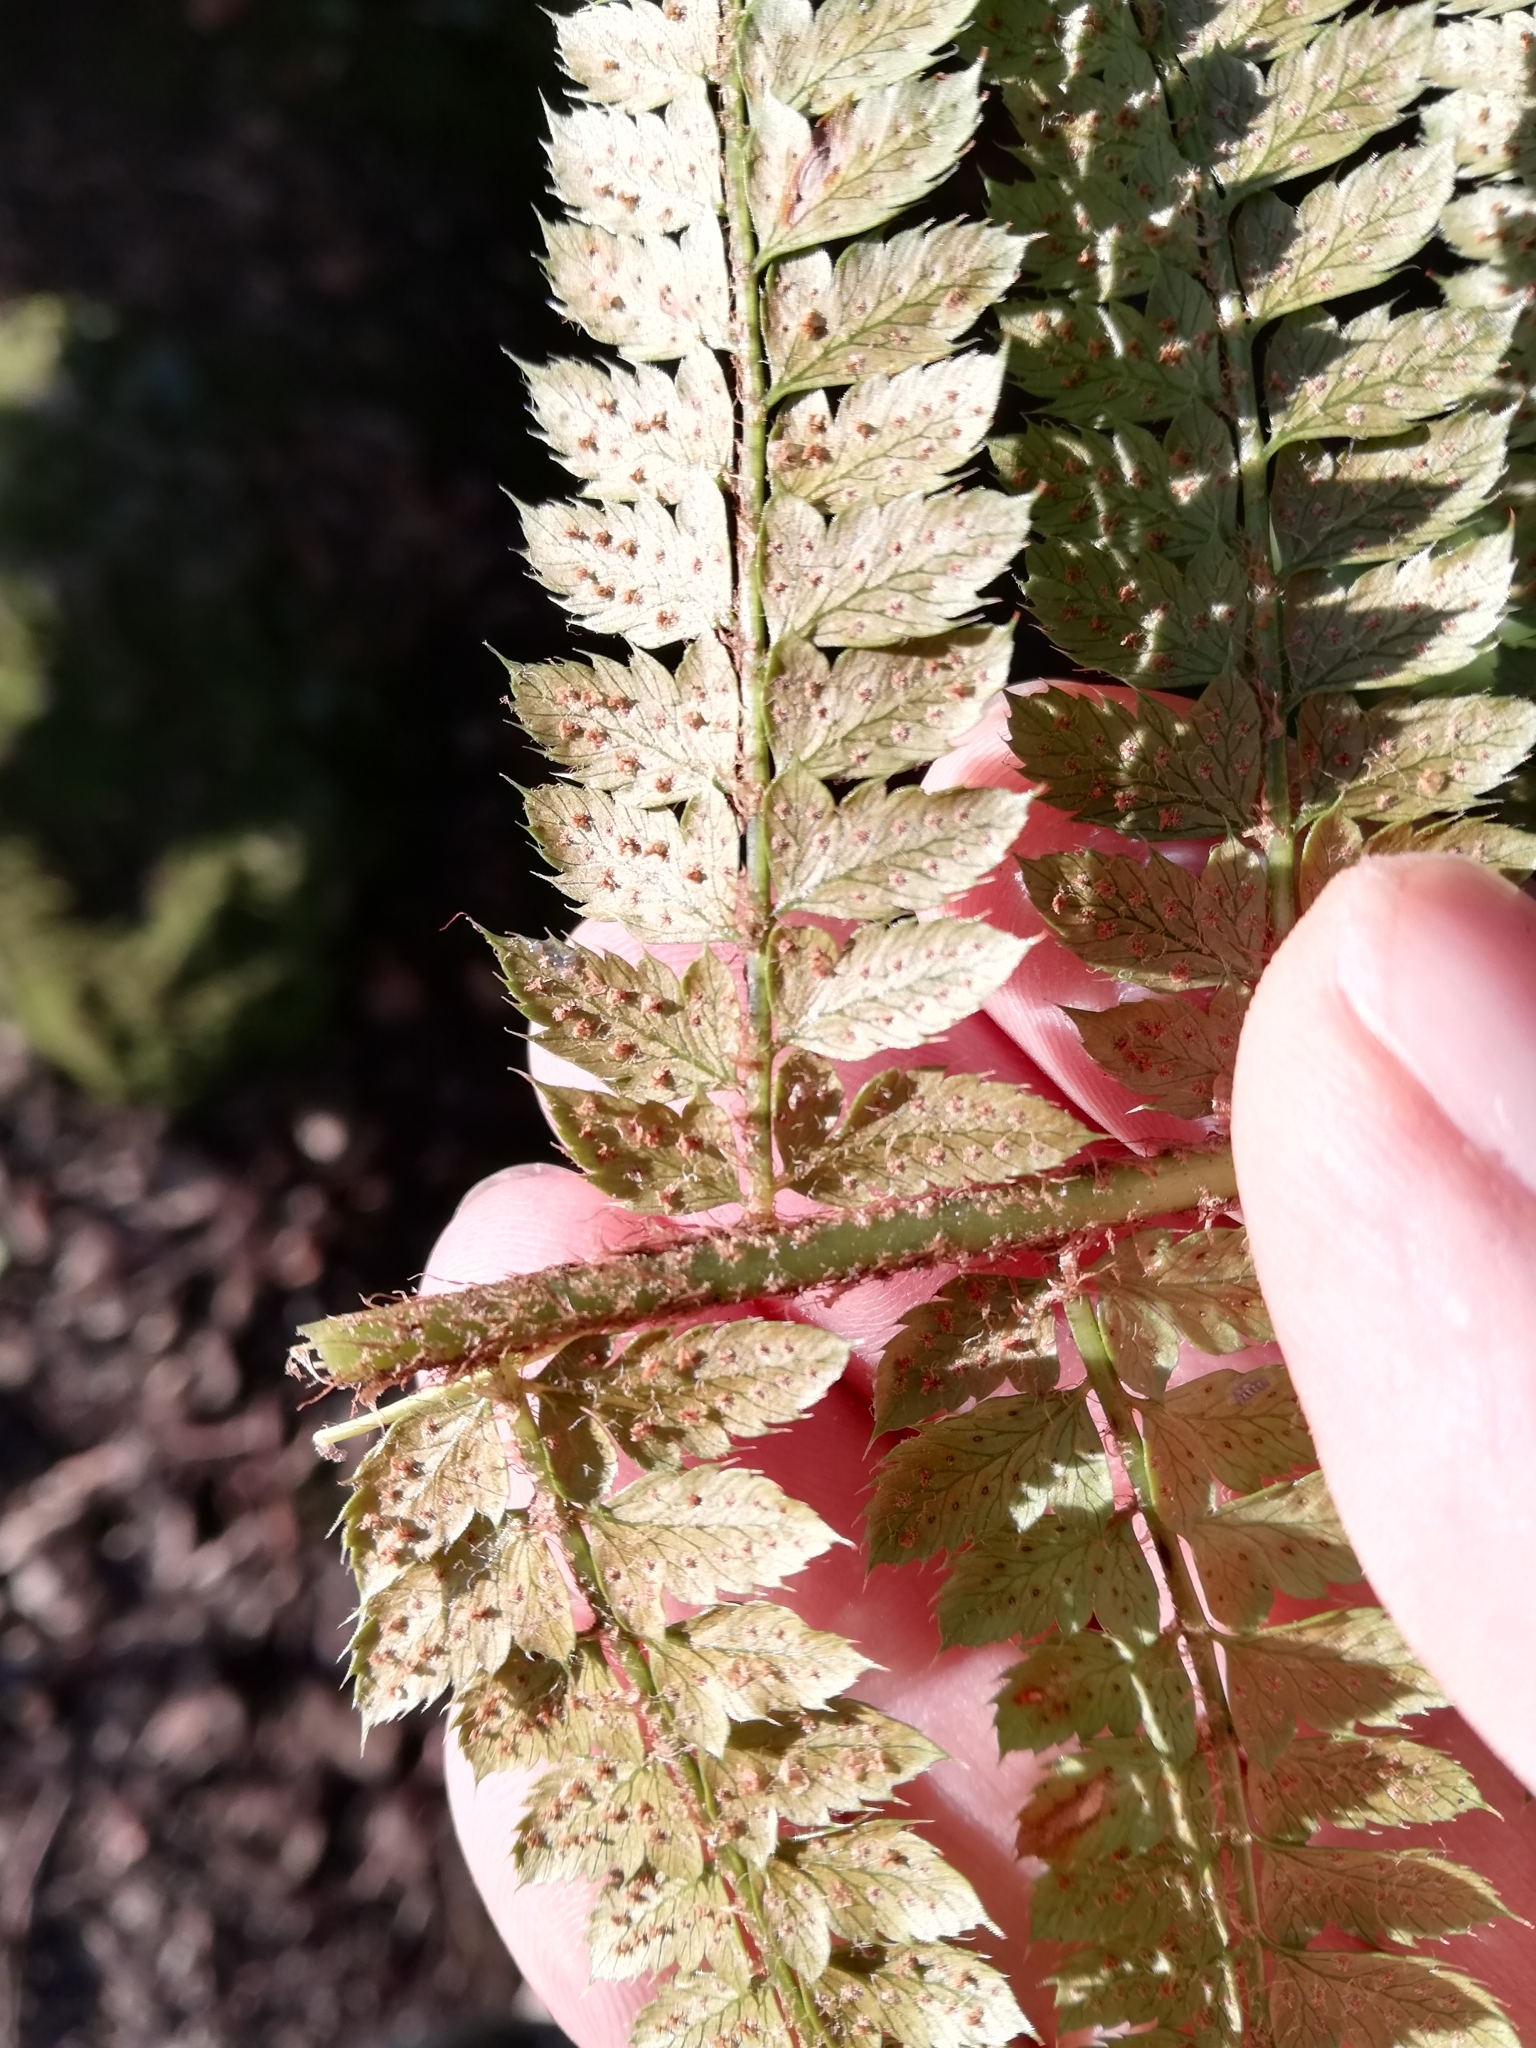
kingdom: Plantae
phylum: Tracheophyta
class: Polypodiopsida
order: Polypodiales
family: Dryopteridaceae
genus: Polystichum
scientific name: Polystichum setiferum
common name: Soft shield-fern
